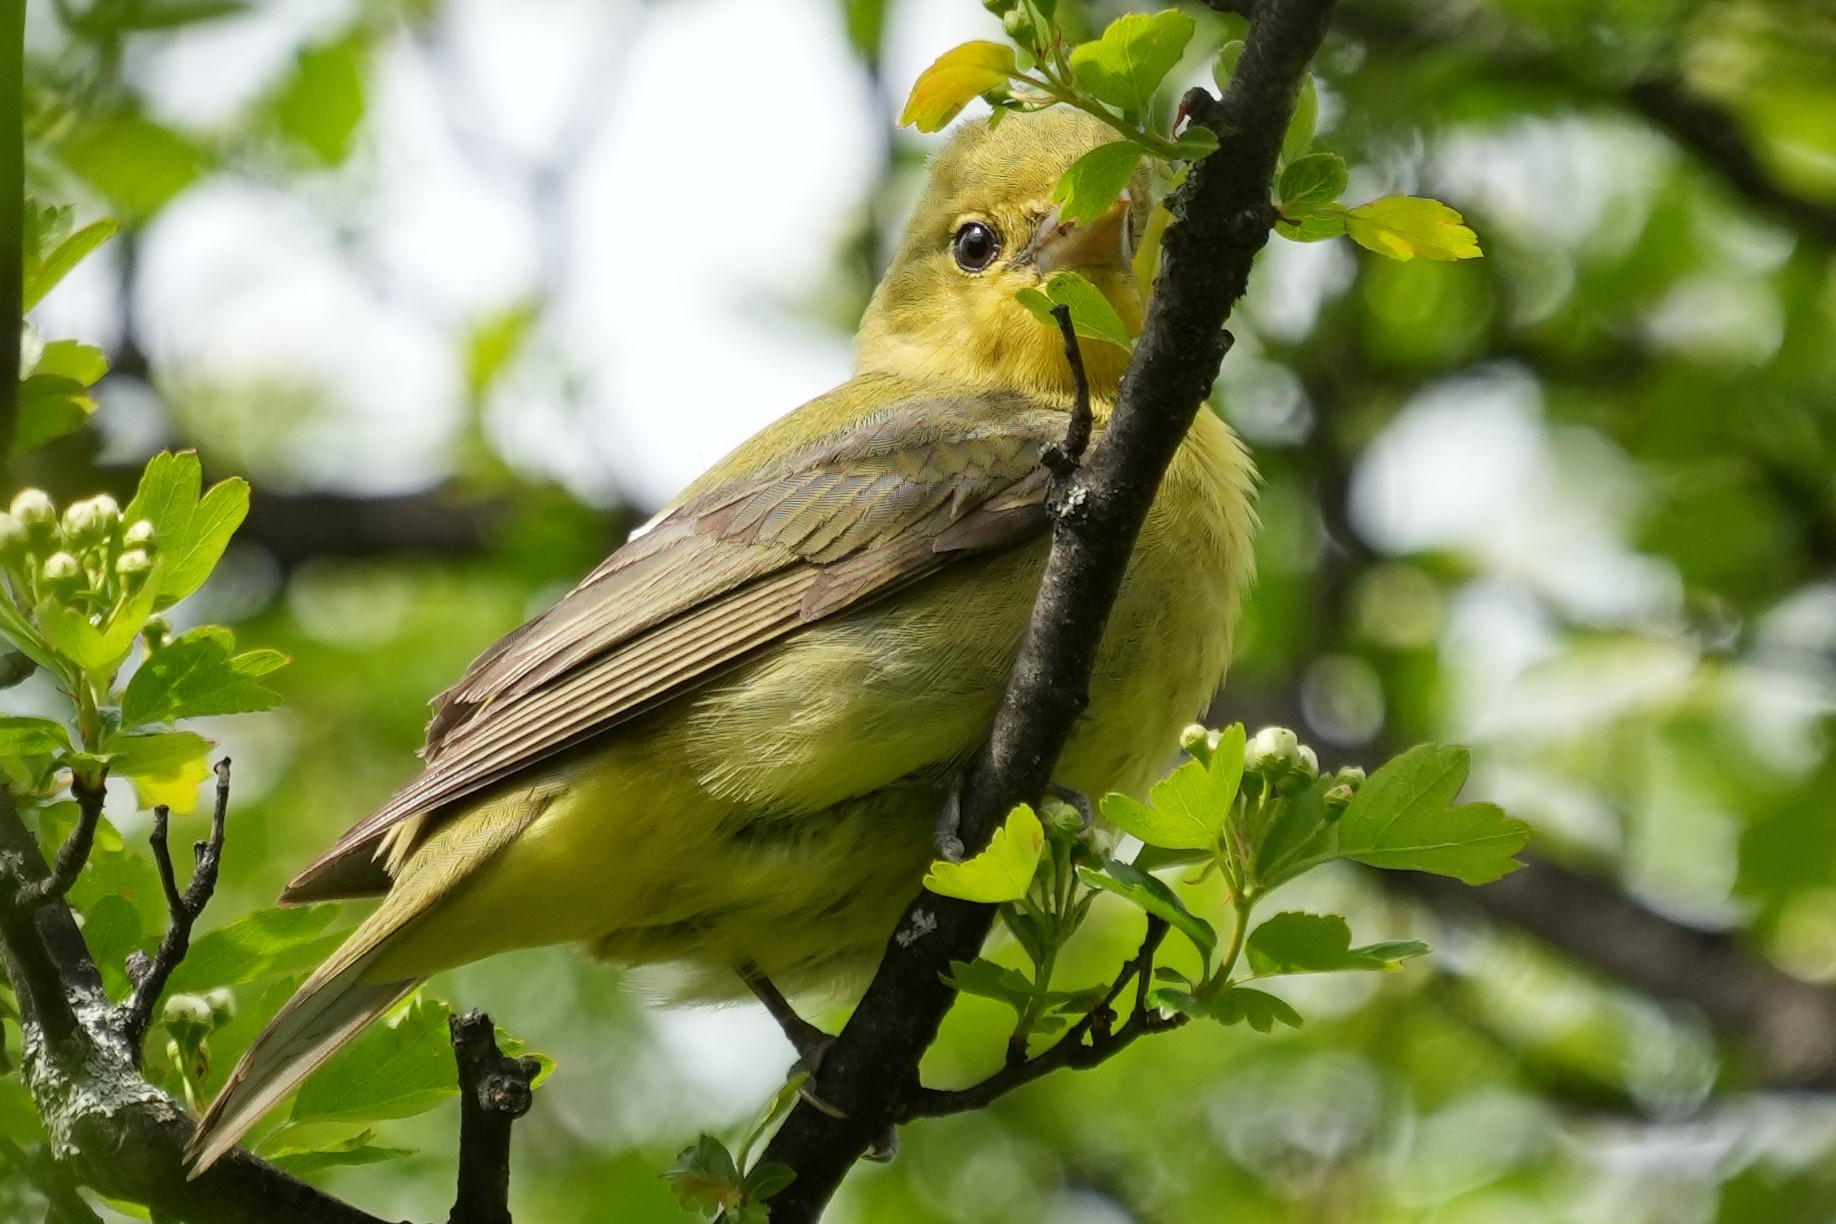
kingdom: Animalia
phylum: Chordata
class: Aves
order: Passeriformes
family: Cardinalidae
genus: Piranga
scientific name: Piranga olivacea
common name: Scarlet tanager
